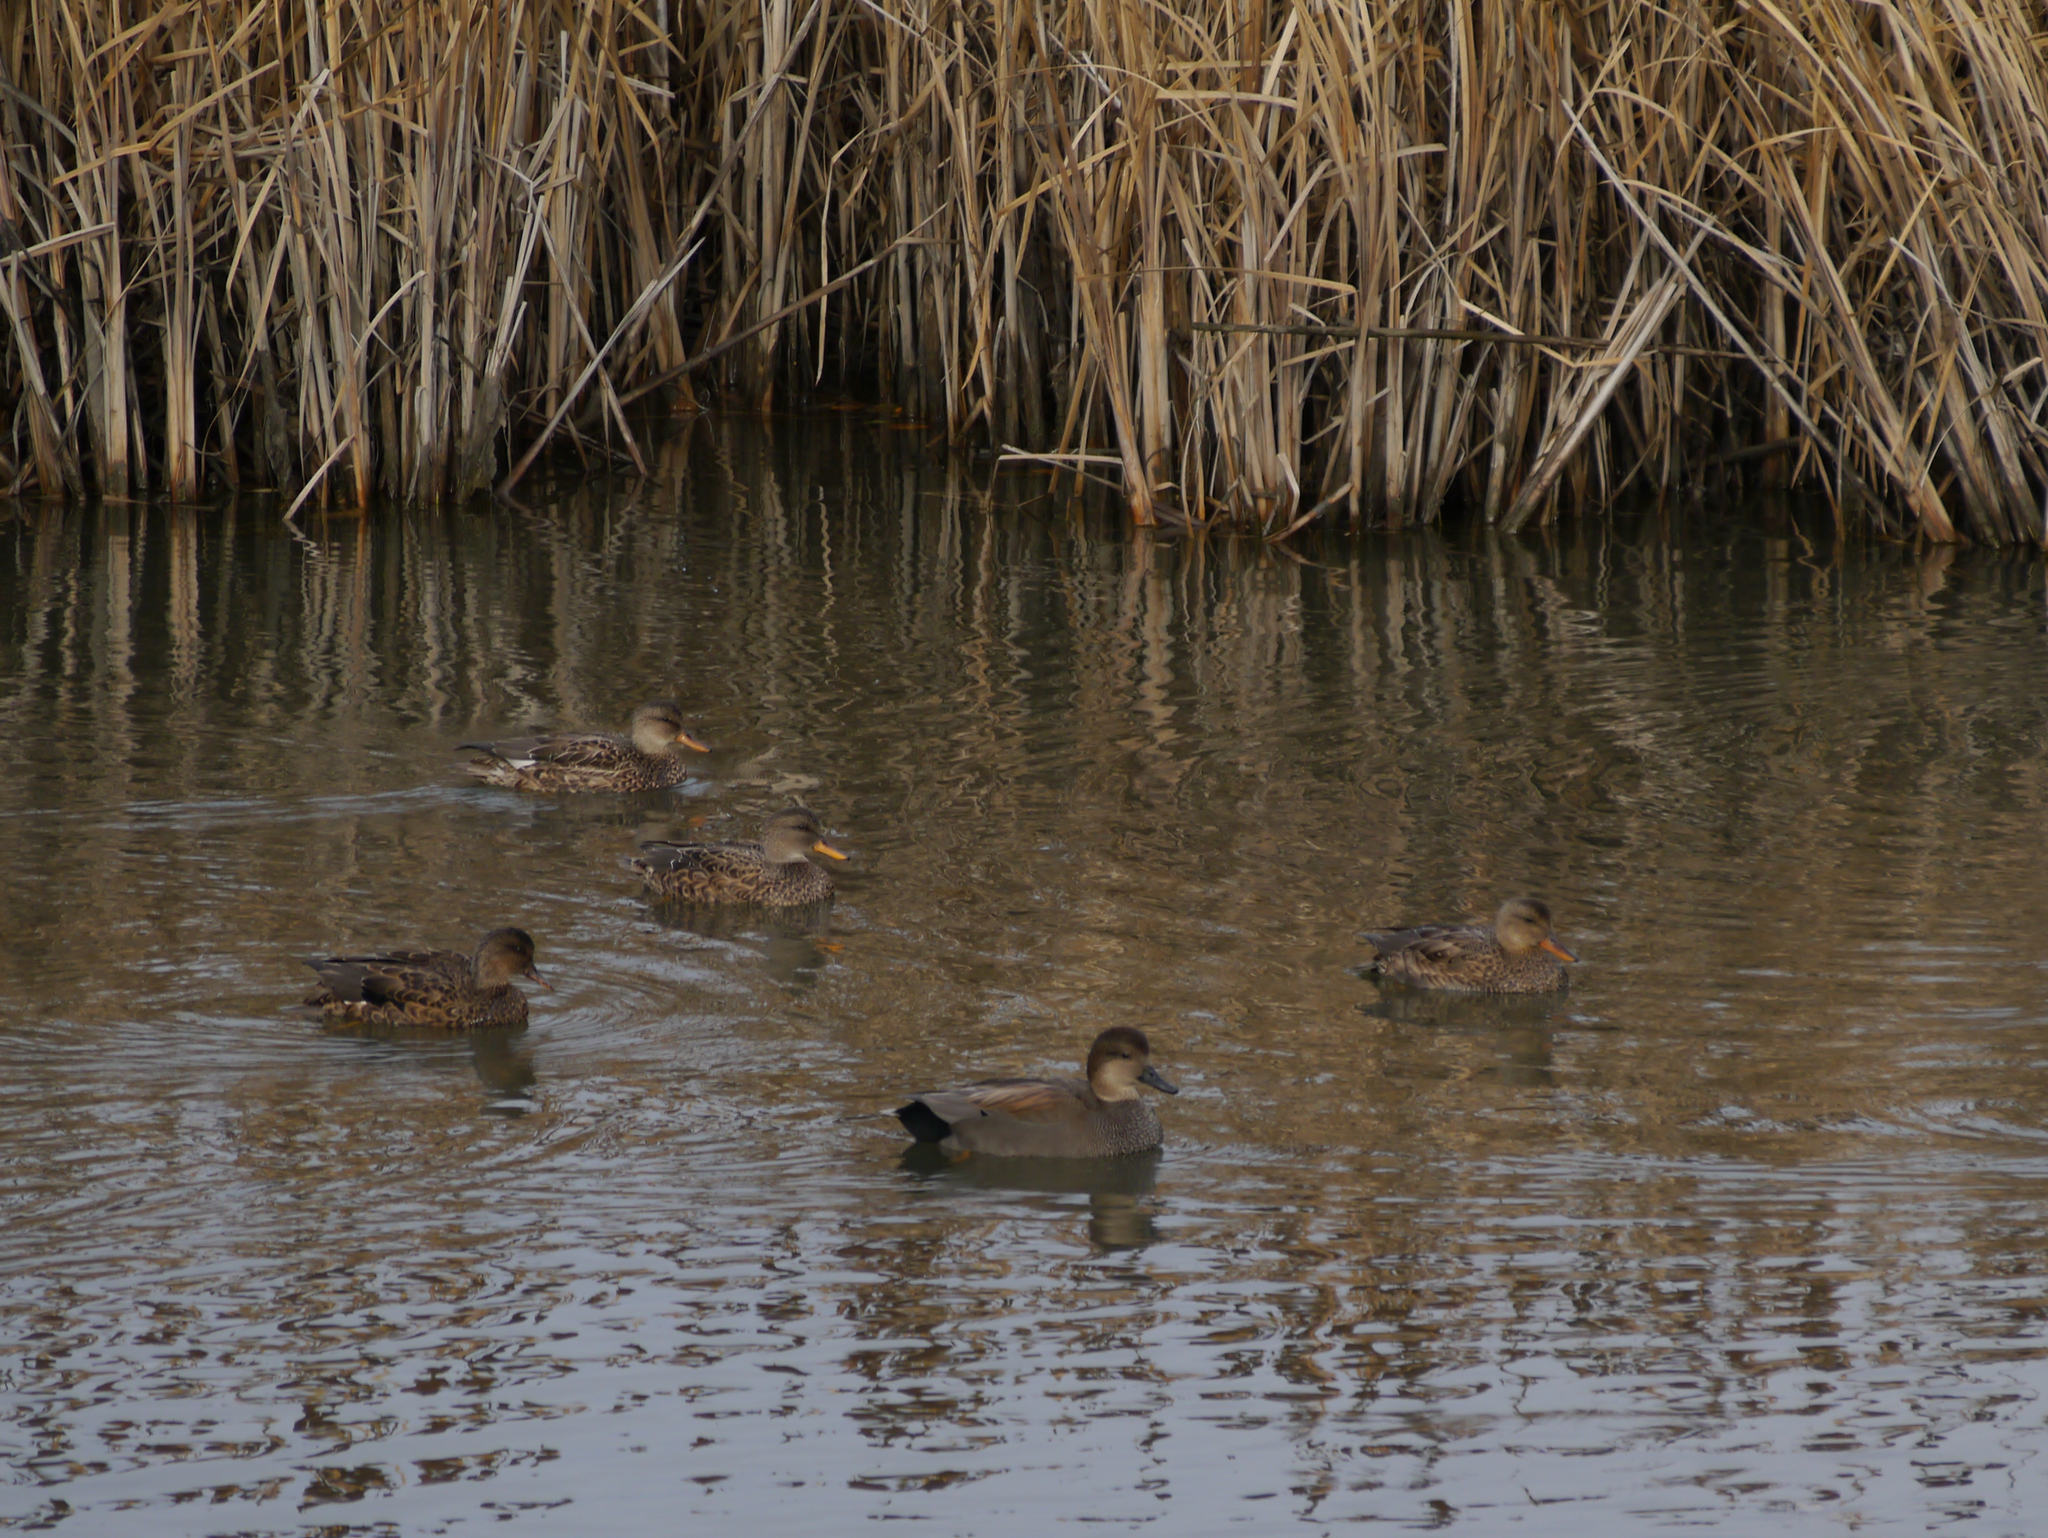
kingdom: Animalia
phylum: Chordata
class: Aves
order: Anseriformes
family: Anatidae
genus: Mareca
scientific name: Mareca strepera
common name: Gadwall
